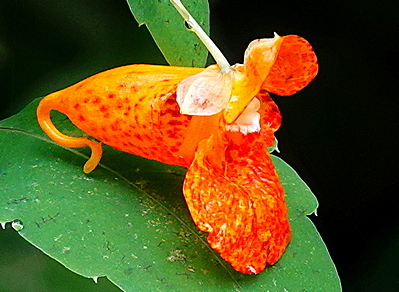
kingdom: Plantae
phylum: Tracheophyta
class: Magnoliopsida
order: Ericales
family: Balsaminaceae
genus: Impatiens
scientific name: Impatiens capensis
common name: Orange balsam
